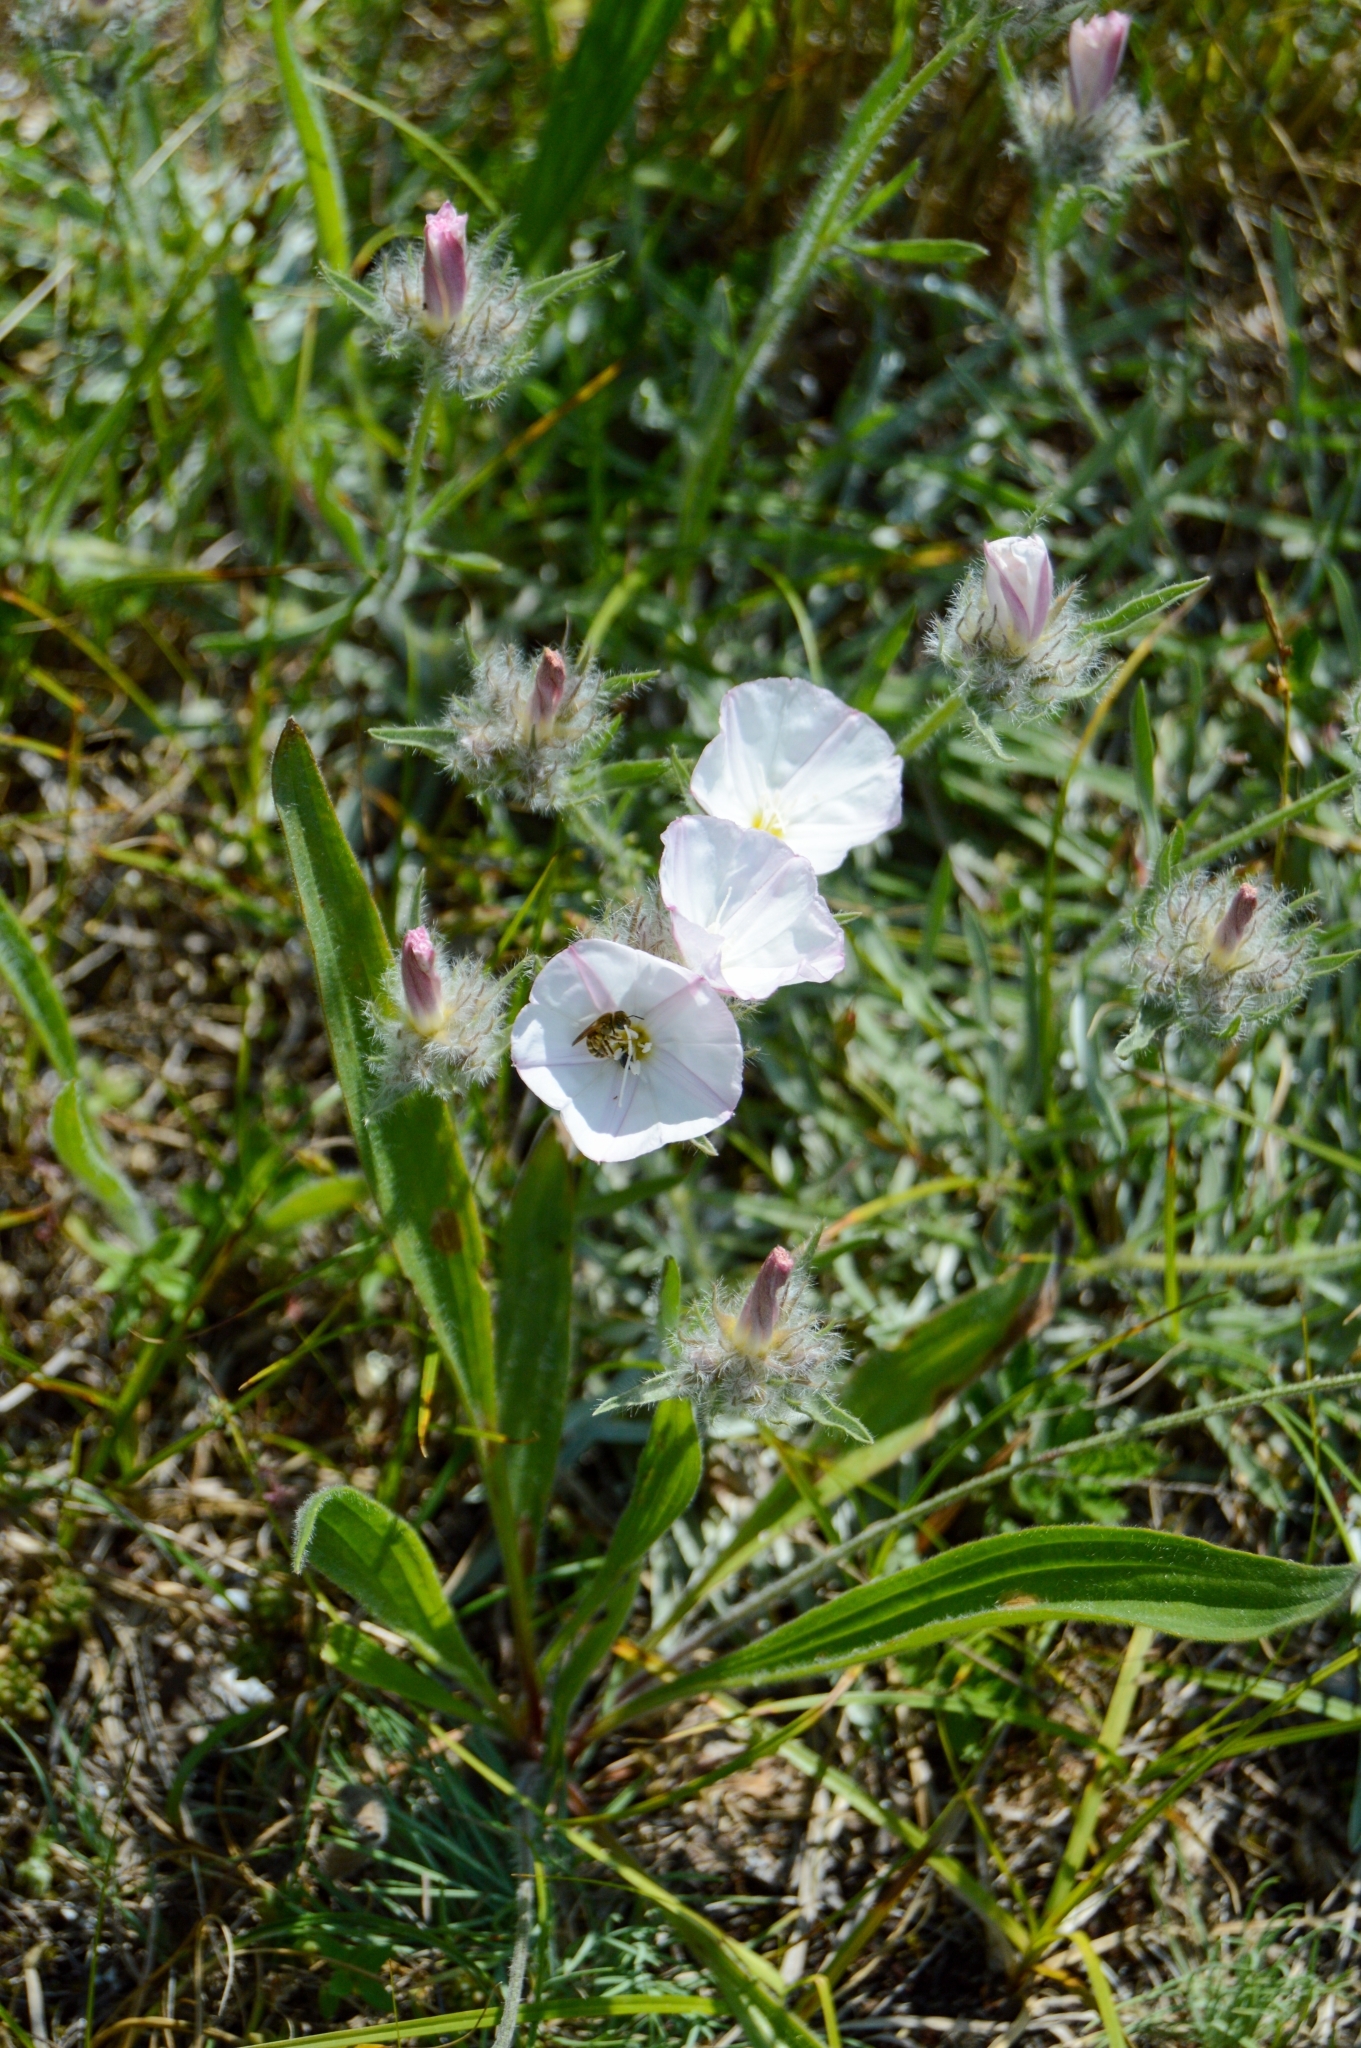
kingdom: Plantae
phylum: Tracheophyta
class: Magnoliopsida
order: Solanales
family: Convolvulaceae
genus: Convolvulus
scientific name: Convolvulus calvertii
